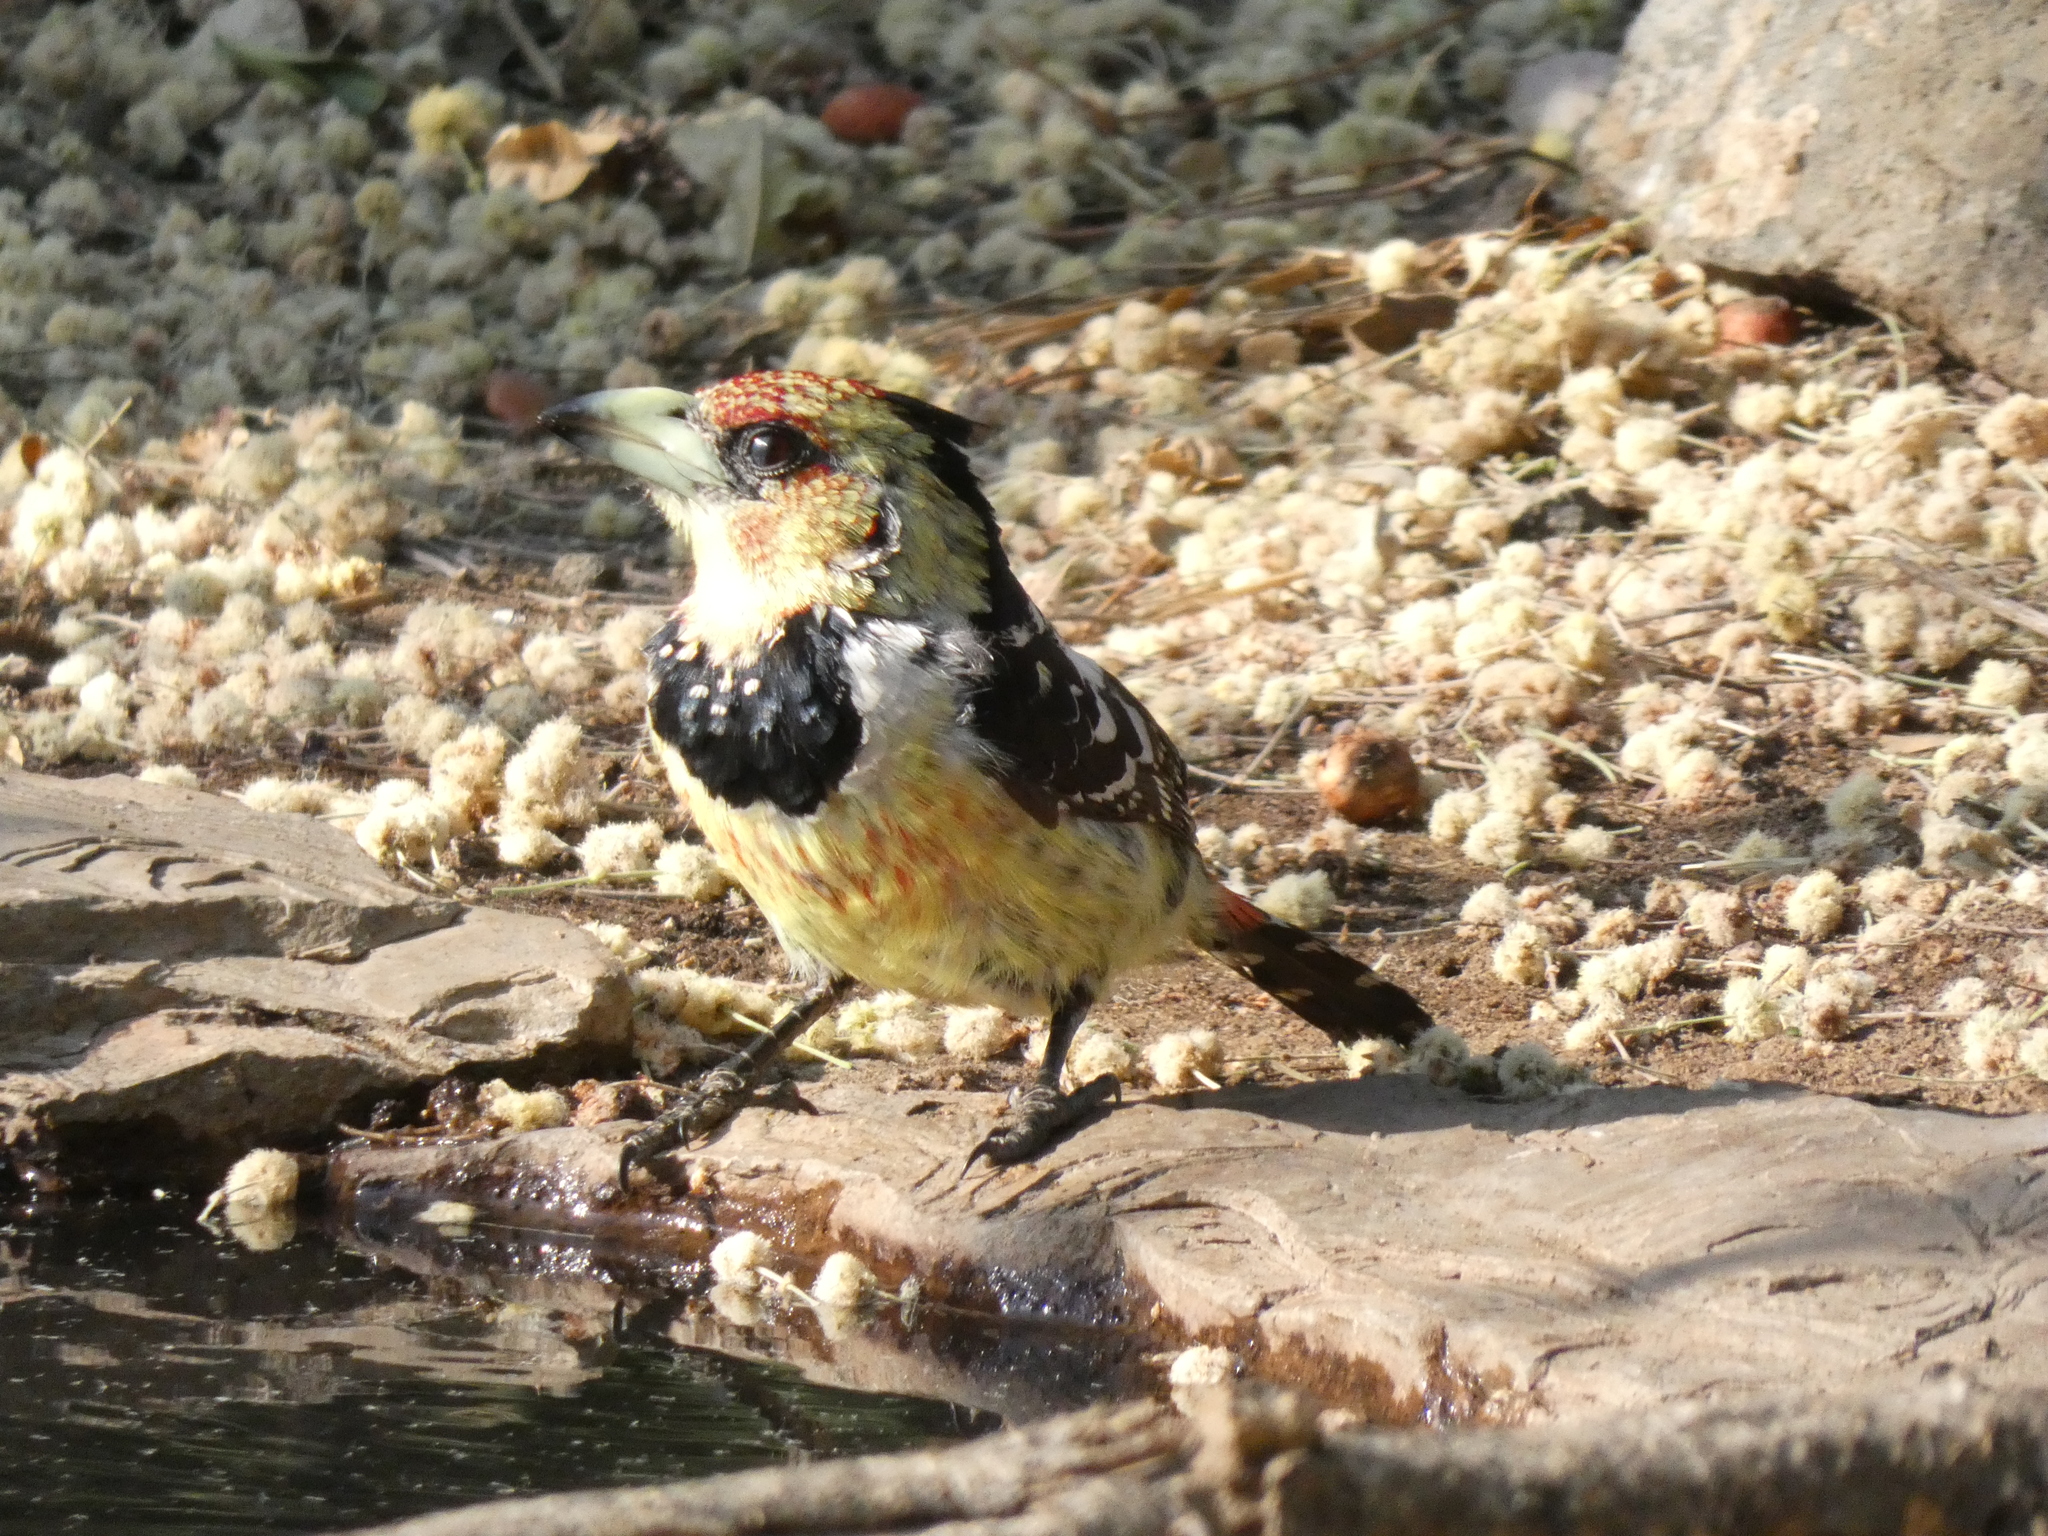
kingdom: Animalia
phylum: Chordata
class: Aves
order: Piciformes
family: Lybiidae
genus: Trachyphonus
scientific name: Trachyphonus vaillantii
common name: Crested barbet
